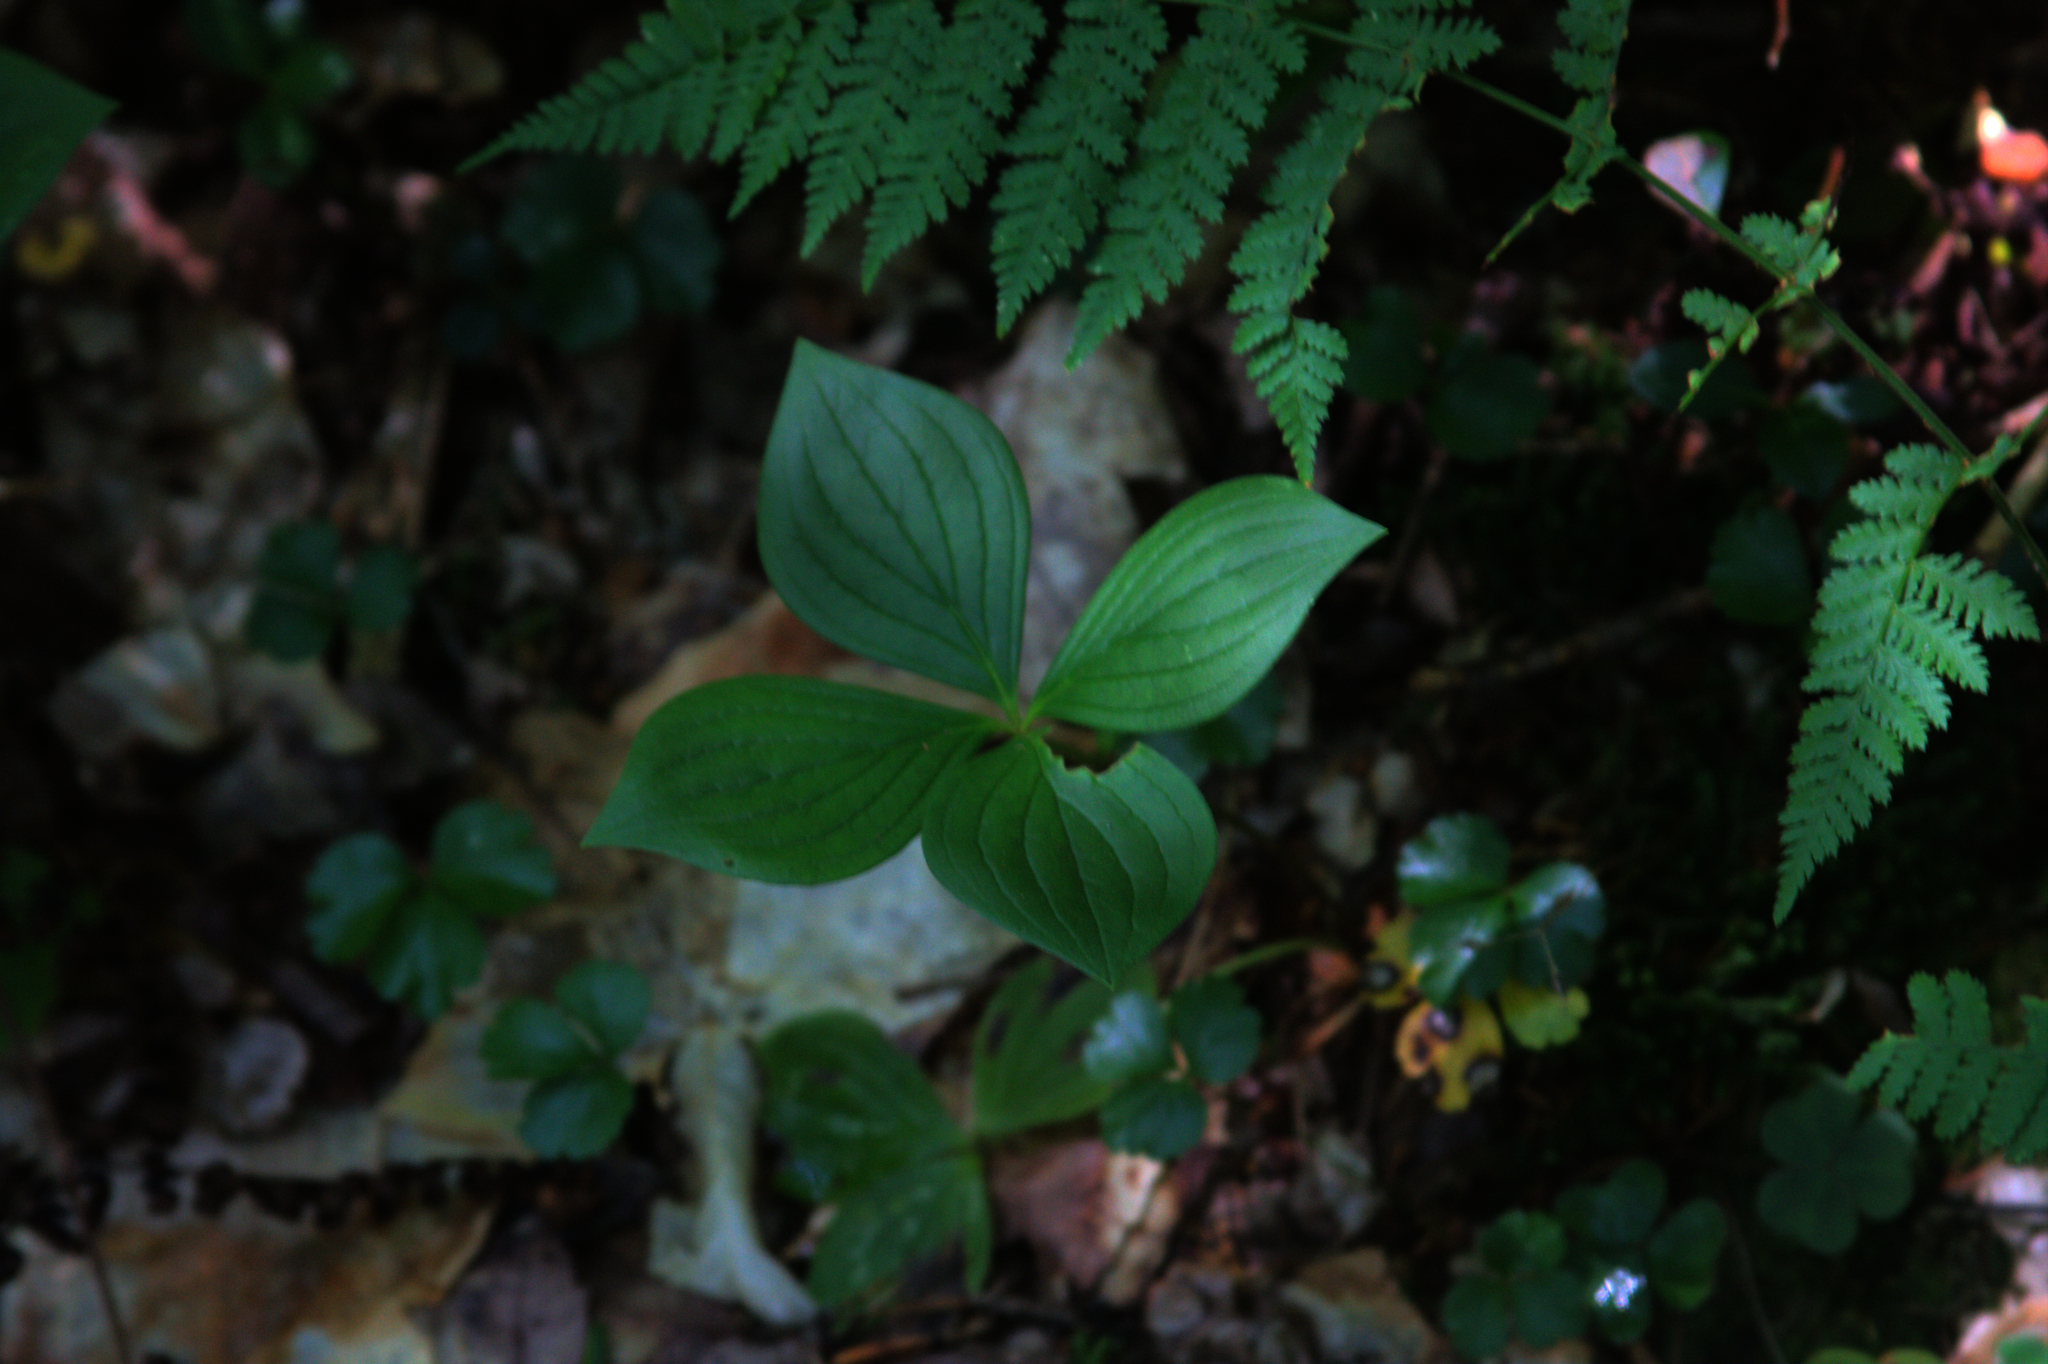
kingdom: Plantae
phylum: Tracheophyta
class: Magnoliopsida
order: Cornales
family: Cornaceae
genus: Cornus
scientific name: Cornus canadensis
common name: Creeping dogwood
